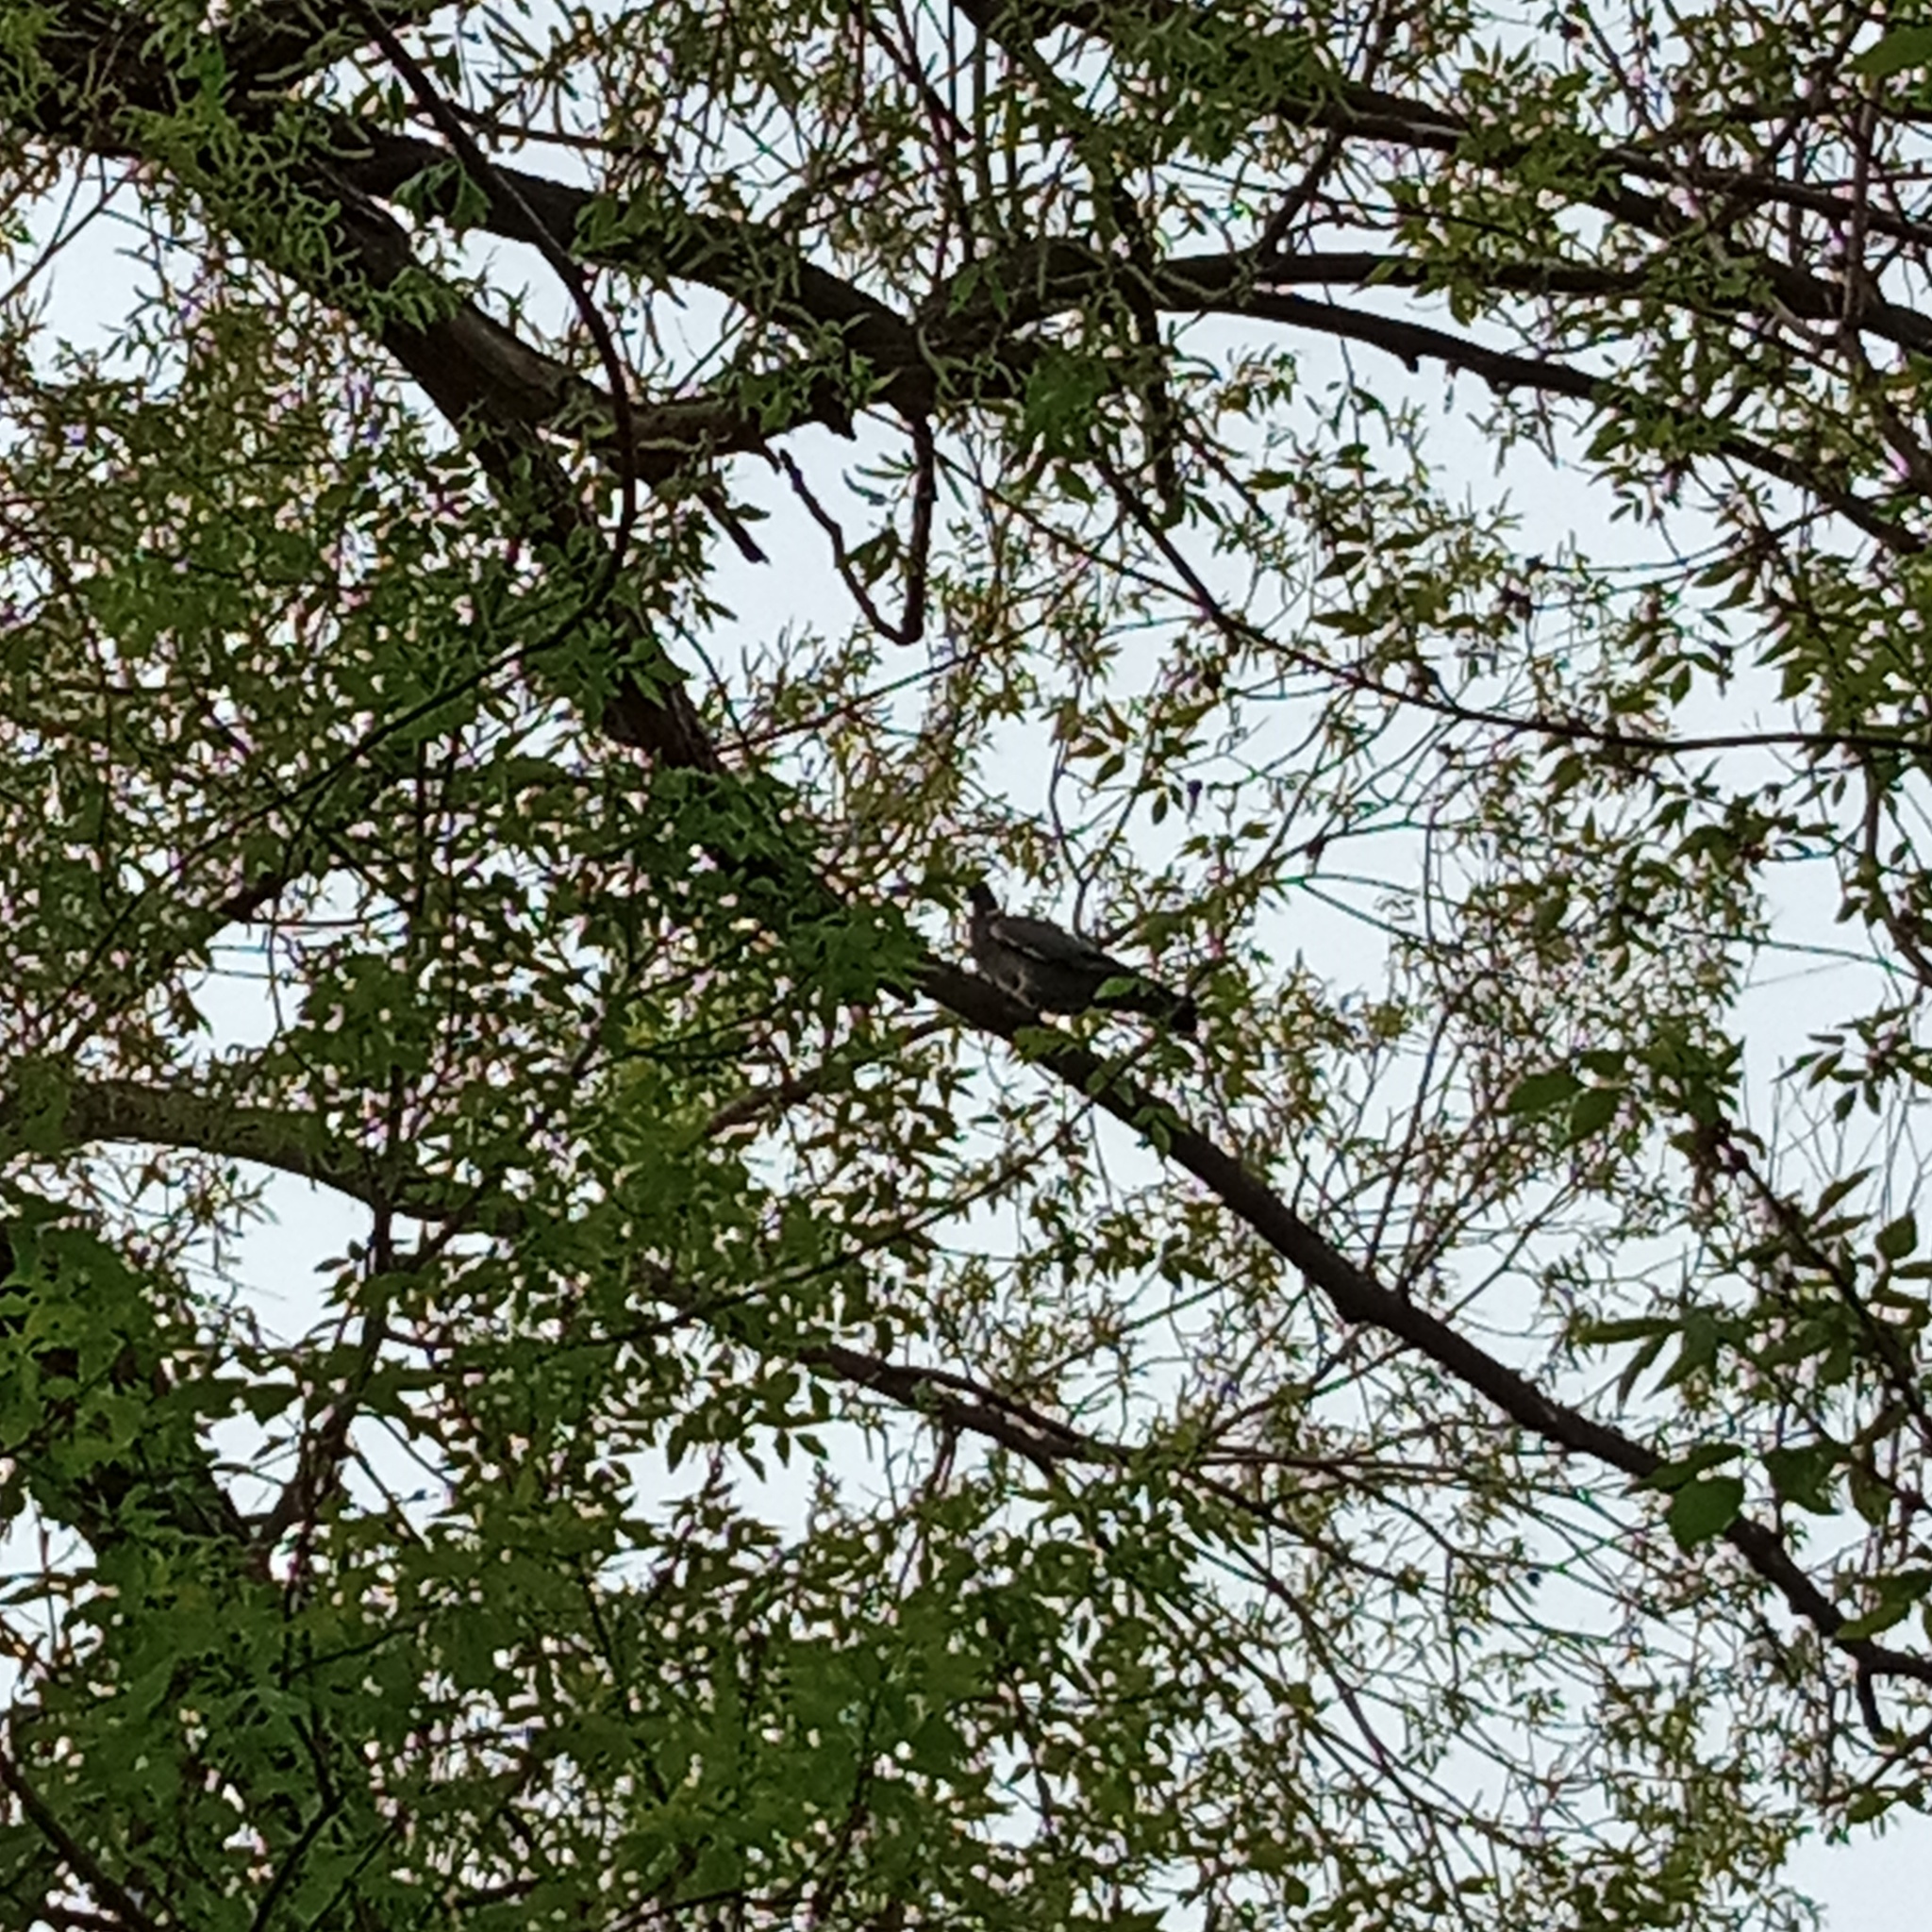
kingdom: Animalia
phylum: Chordata
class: Aves
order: Columbiformes
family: Columbidae
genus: Columba
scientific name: Columba palumbus
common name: Common wood pigeon
